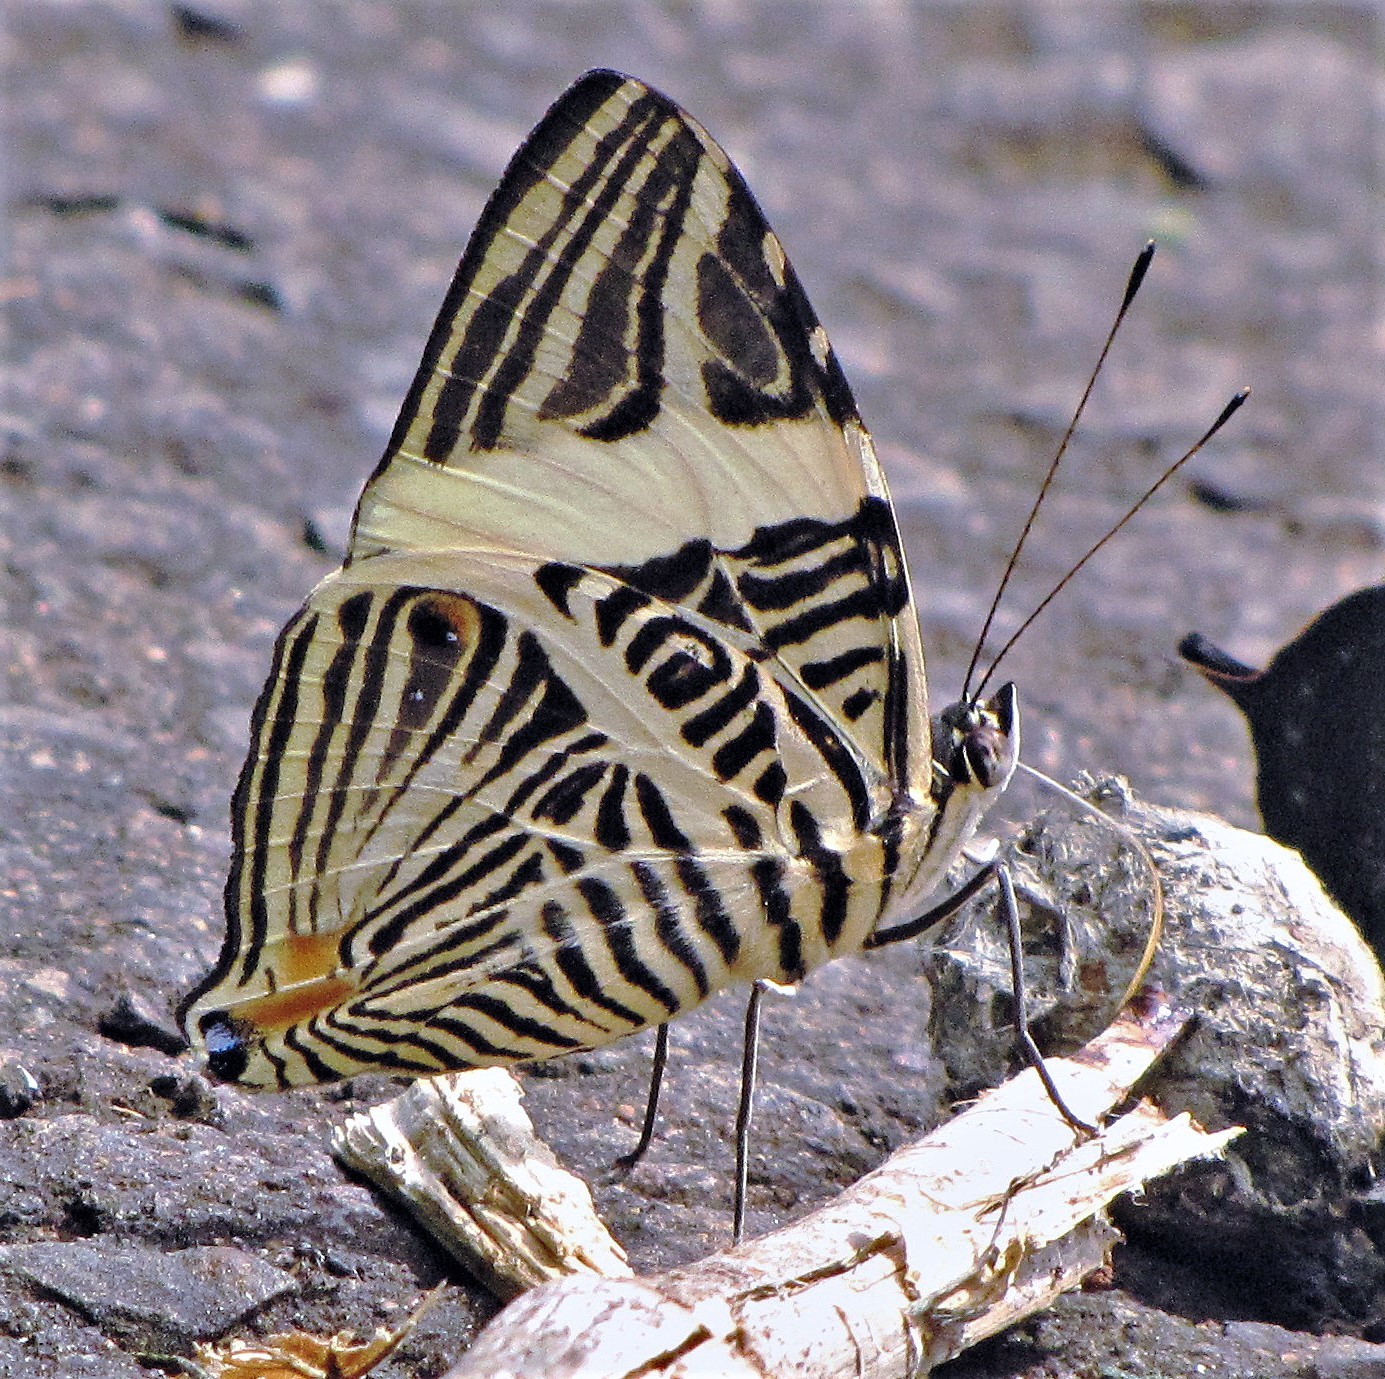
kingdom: Animalia
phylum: Arthropoda
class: Insecta
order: Lepidoptera
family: Nymphalidae
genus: Colobura
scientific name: Colobura dirce
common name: Dirce beauty
